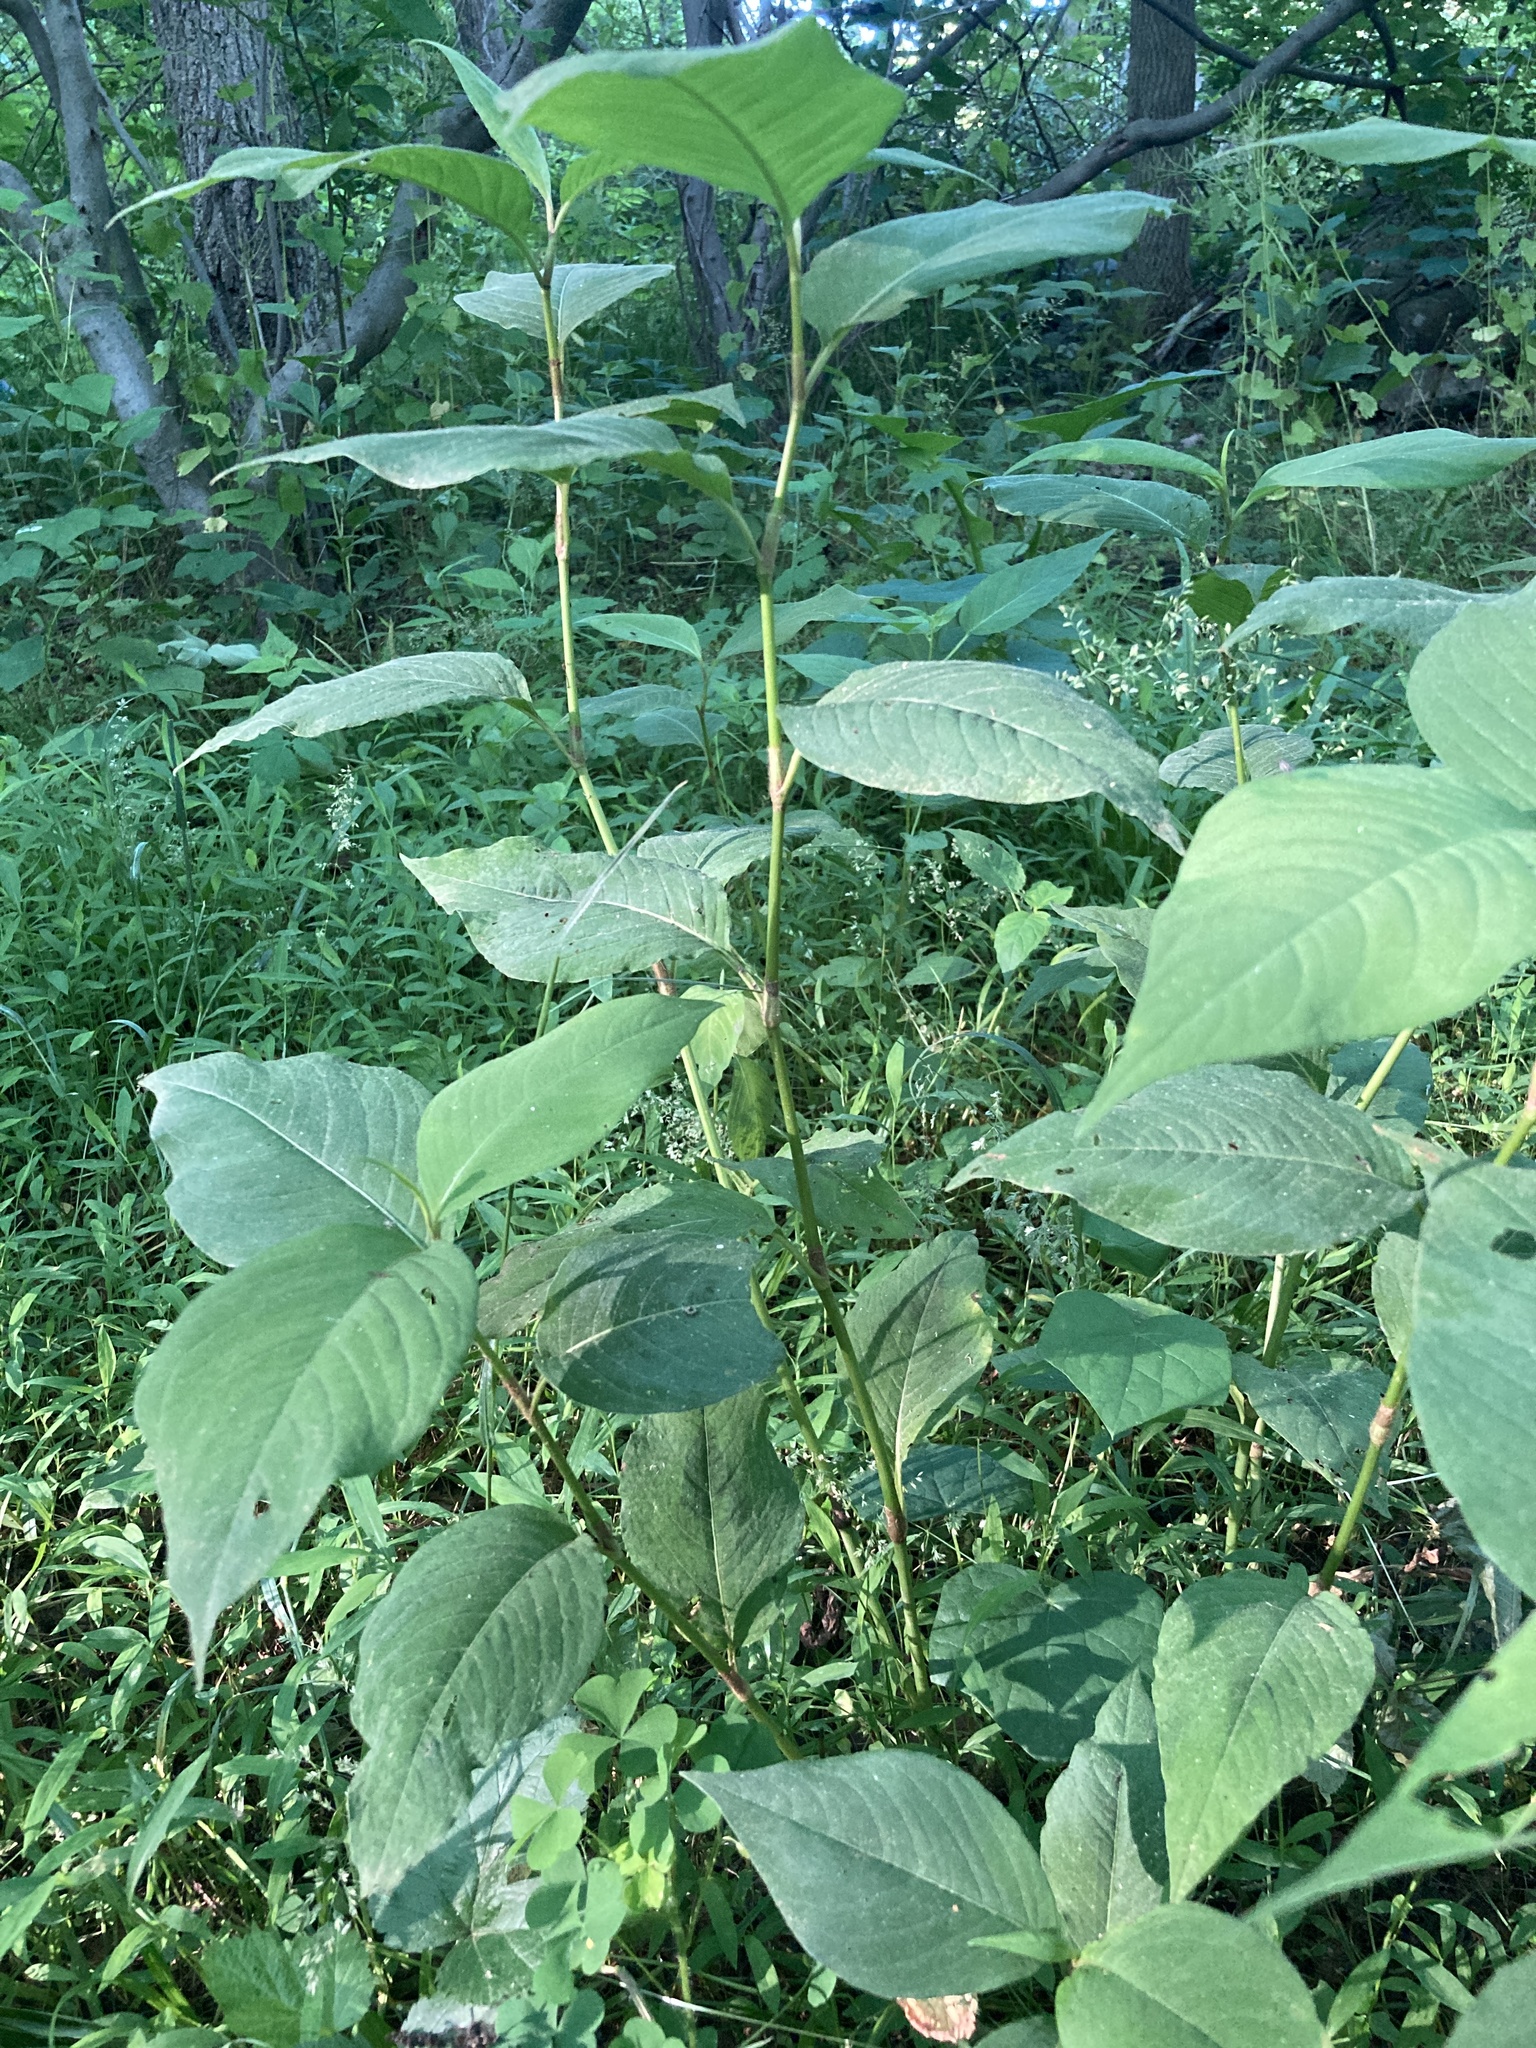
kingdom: Plantae
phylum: Tracheophyta
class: Magnoliopsida
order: Caryophyllales
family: Polygonaceae
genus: Persicaria
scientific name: Persicaria virginiana
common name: Jumpseed
